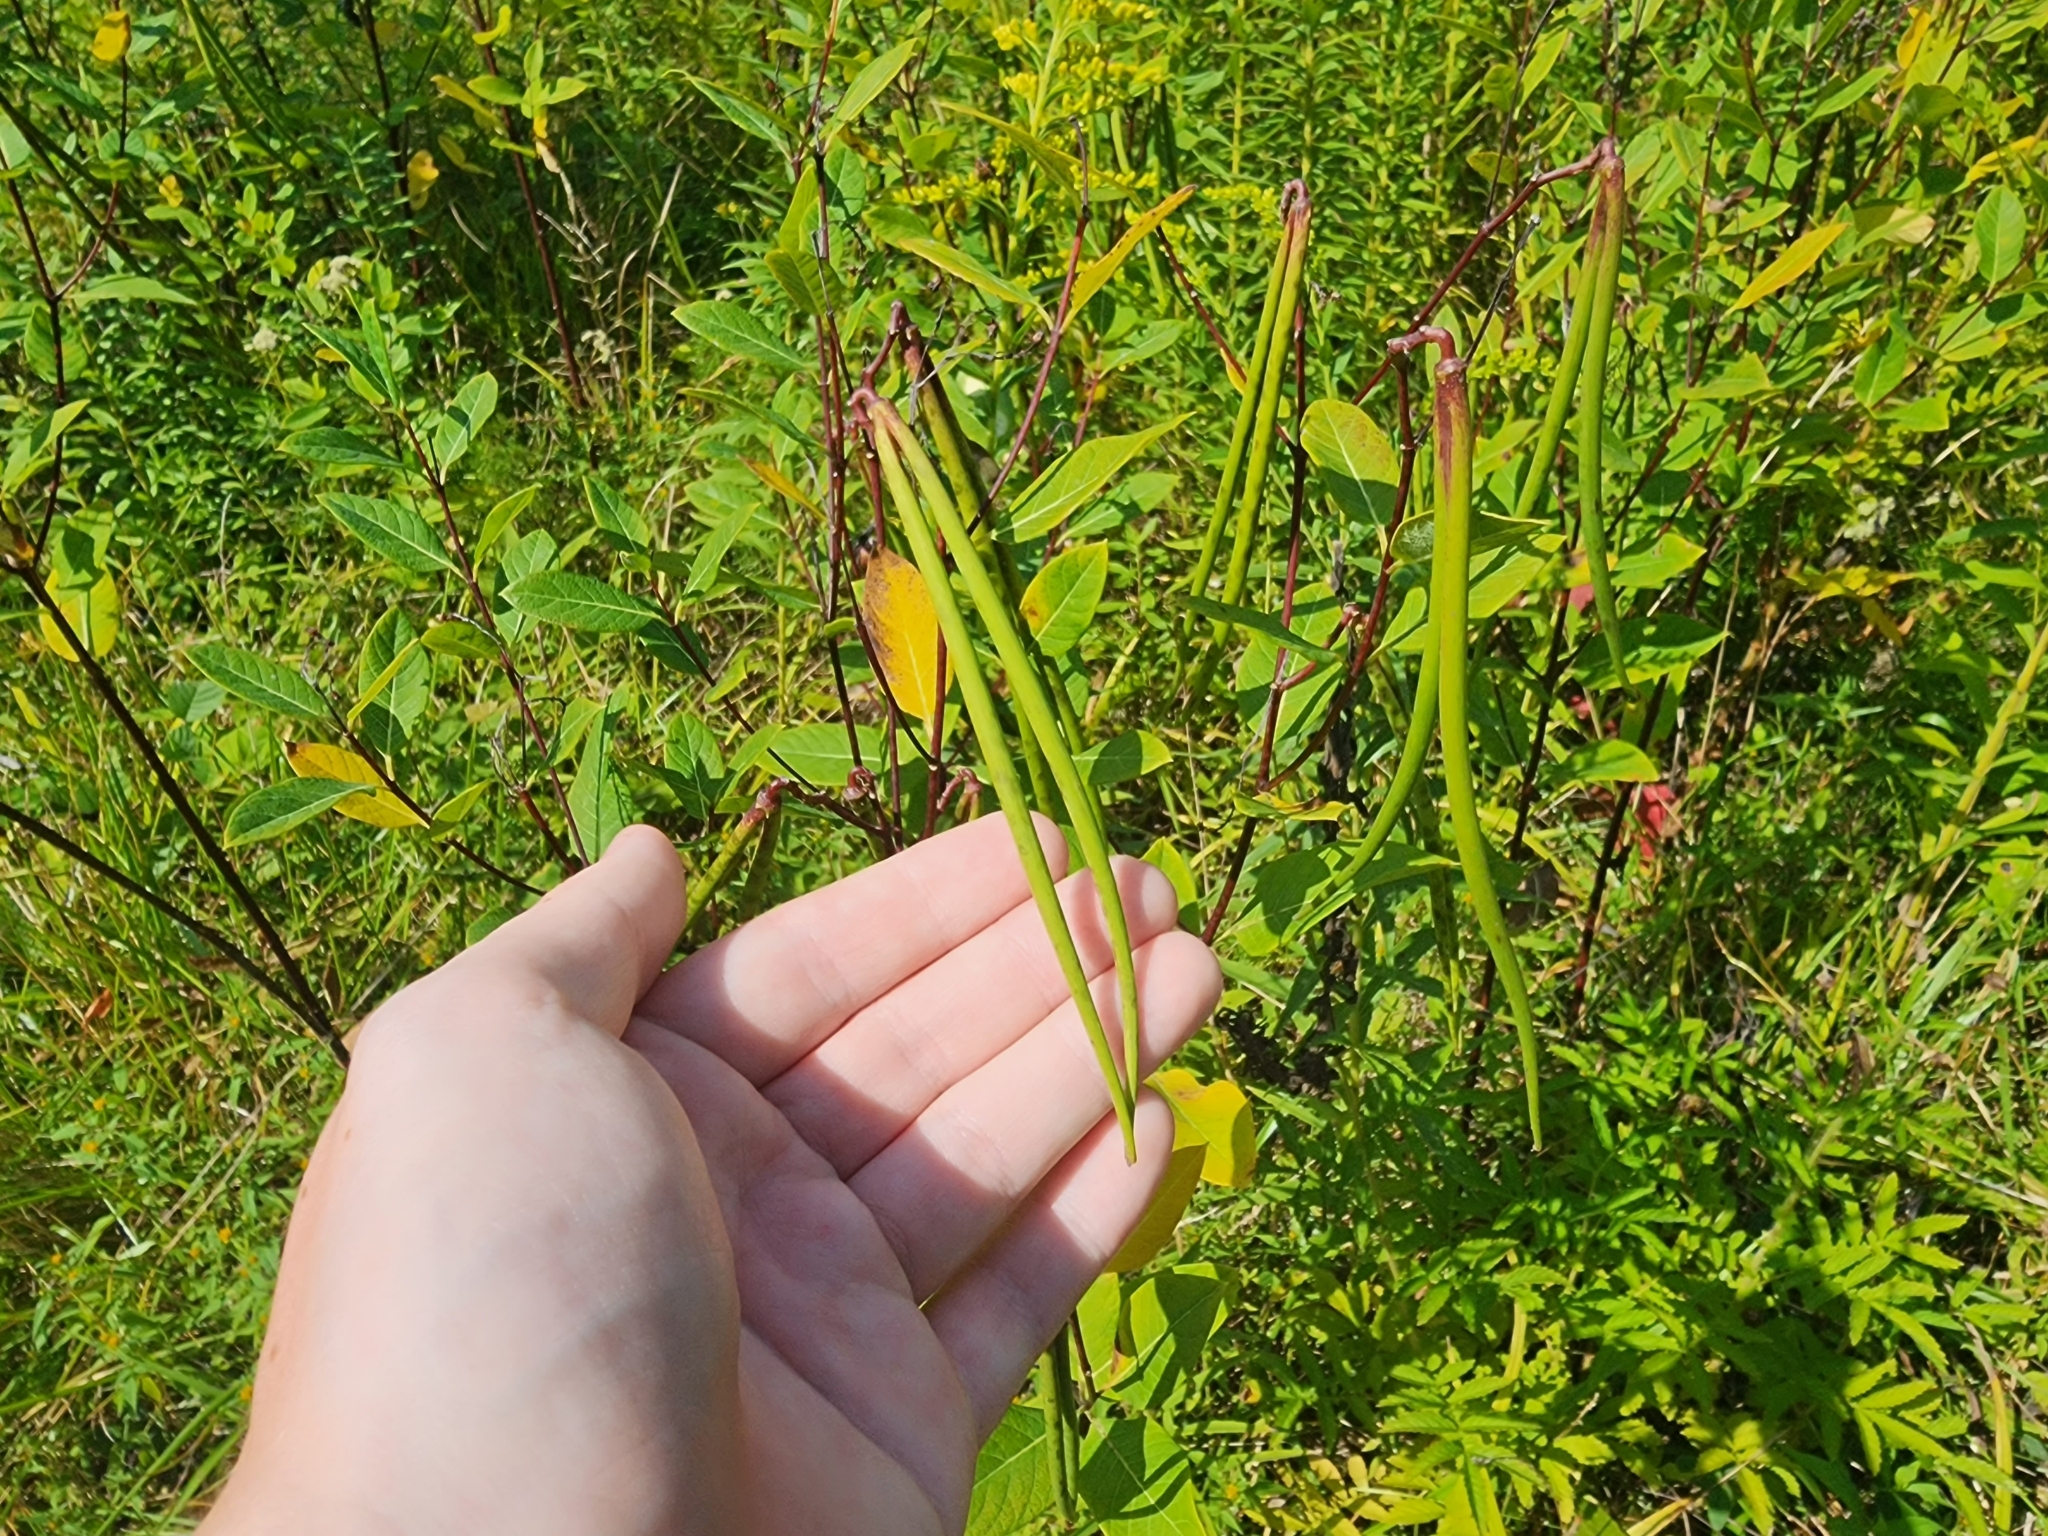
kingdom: Plantae
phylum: Tracheophyta
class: Magnoliopsida
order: Gentianales
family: Apocynaceae
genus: Apocynum
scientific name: Apocynum cannabinum
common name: Hemp dogbane
